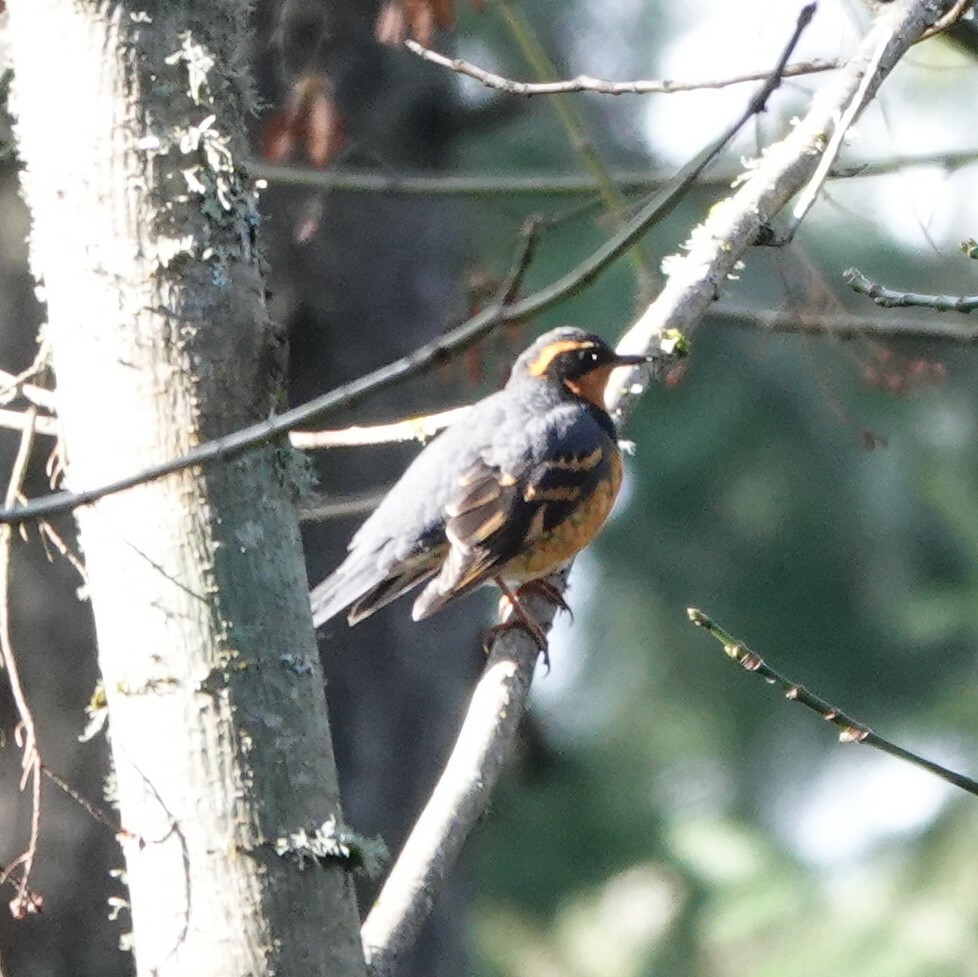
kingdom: Animalia
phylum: Chordata
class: Aves
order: Passeriformes
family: Turdidae
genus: Ixoreus
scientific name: Ixoreus naevius
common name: Varied thrush
